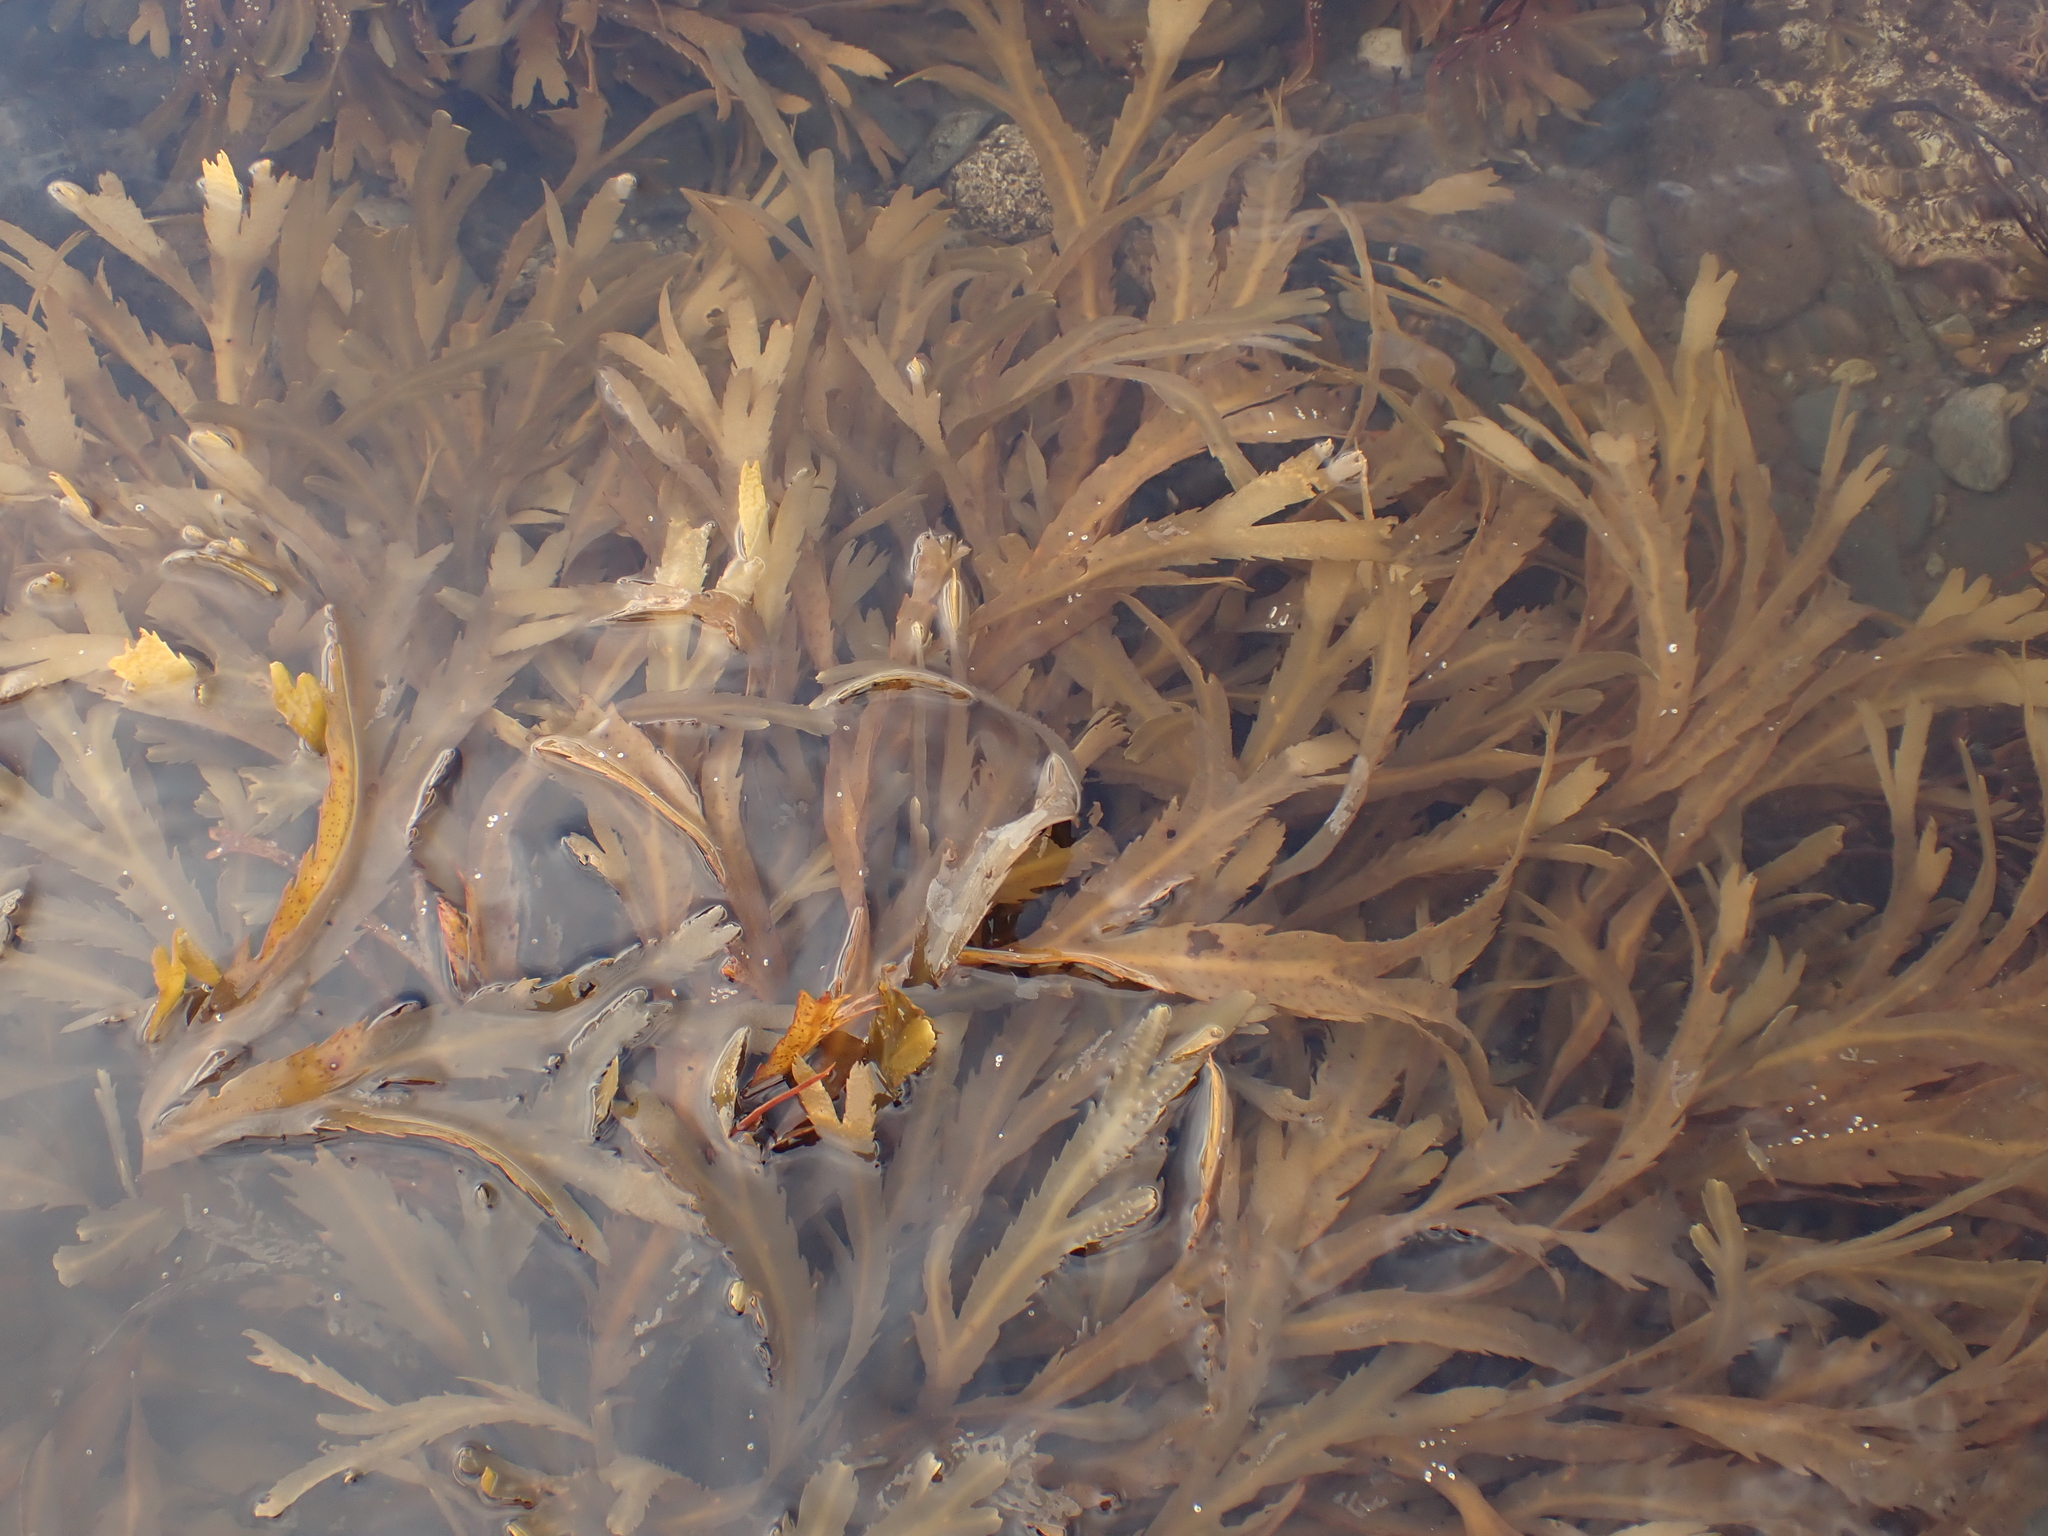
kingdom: Chromista
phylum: Ochrophyta
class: Phaeophyceae
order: Fucales
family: Fucaceae
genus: Fucus
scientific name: Fucus serratus
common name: Toothed wrack
